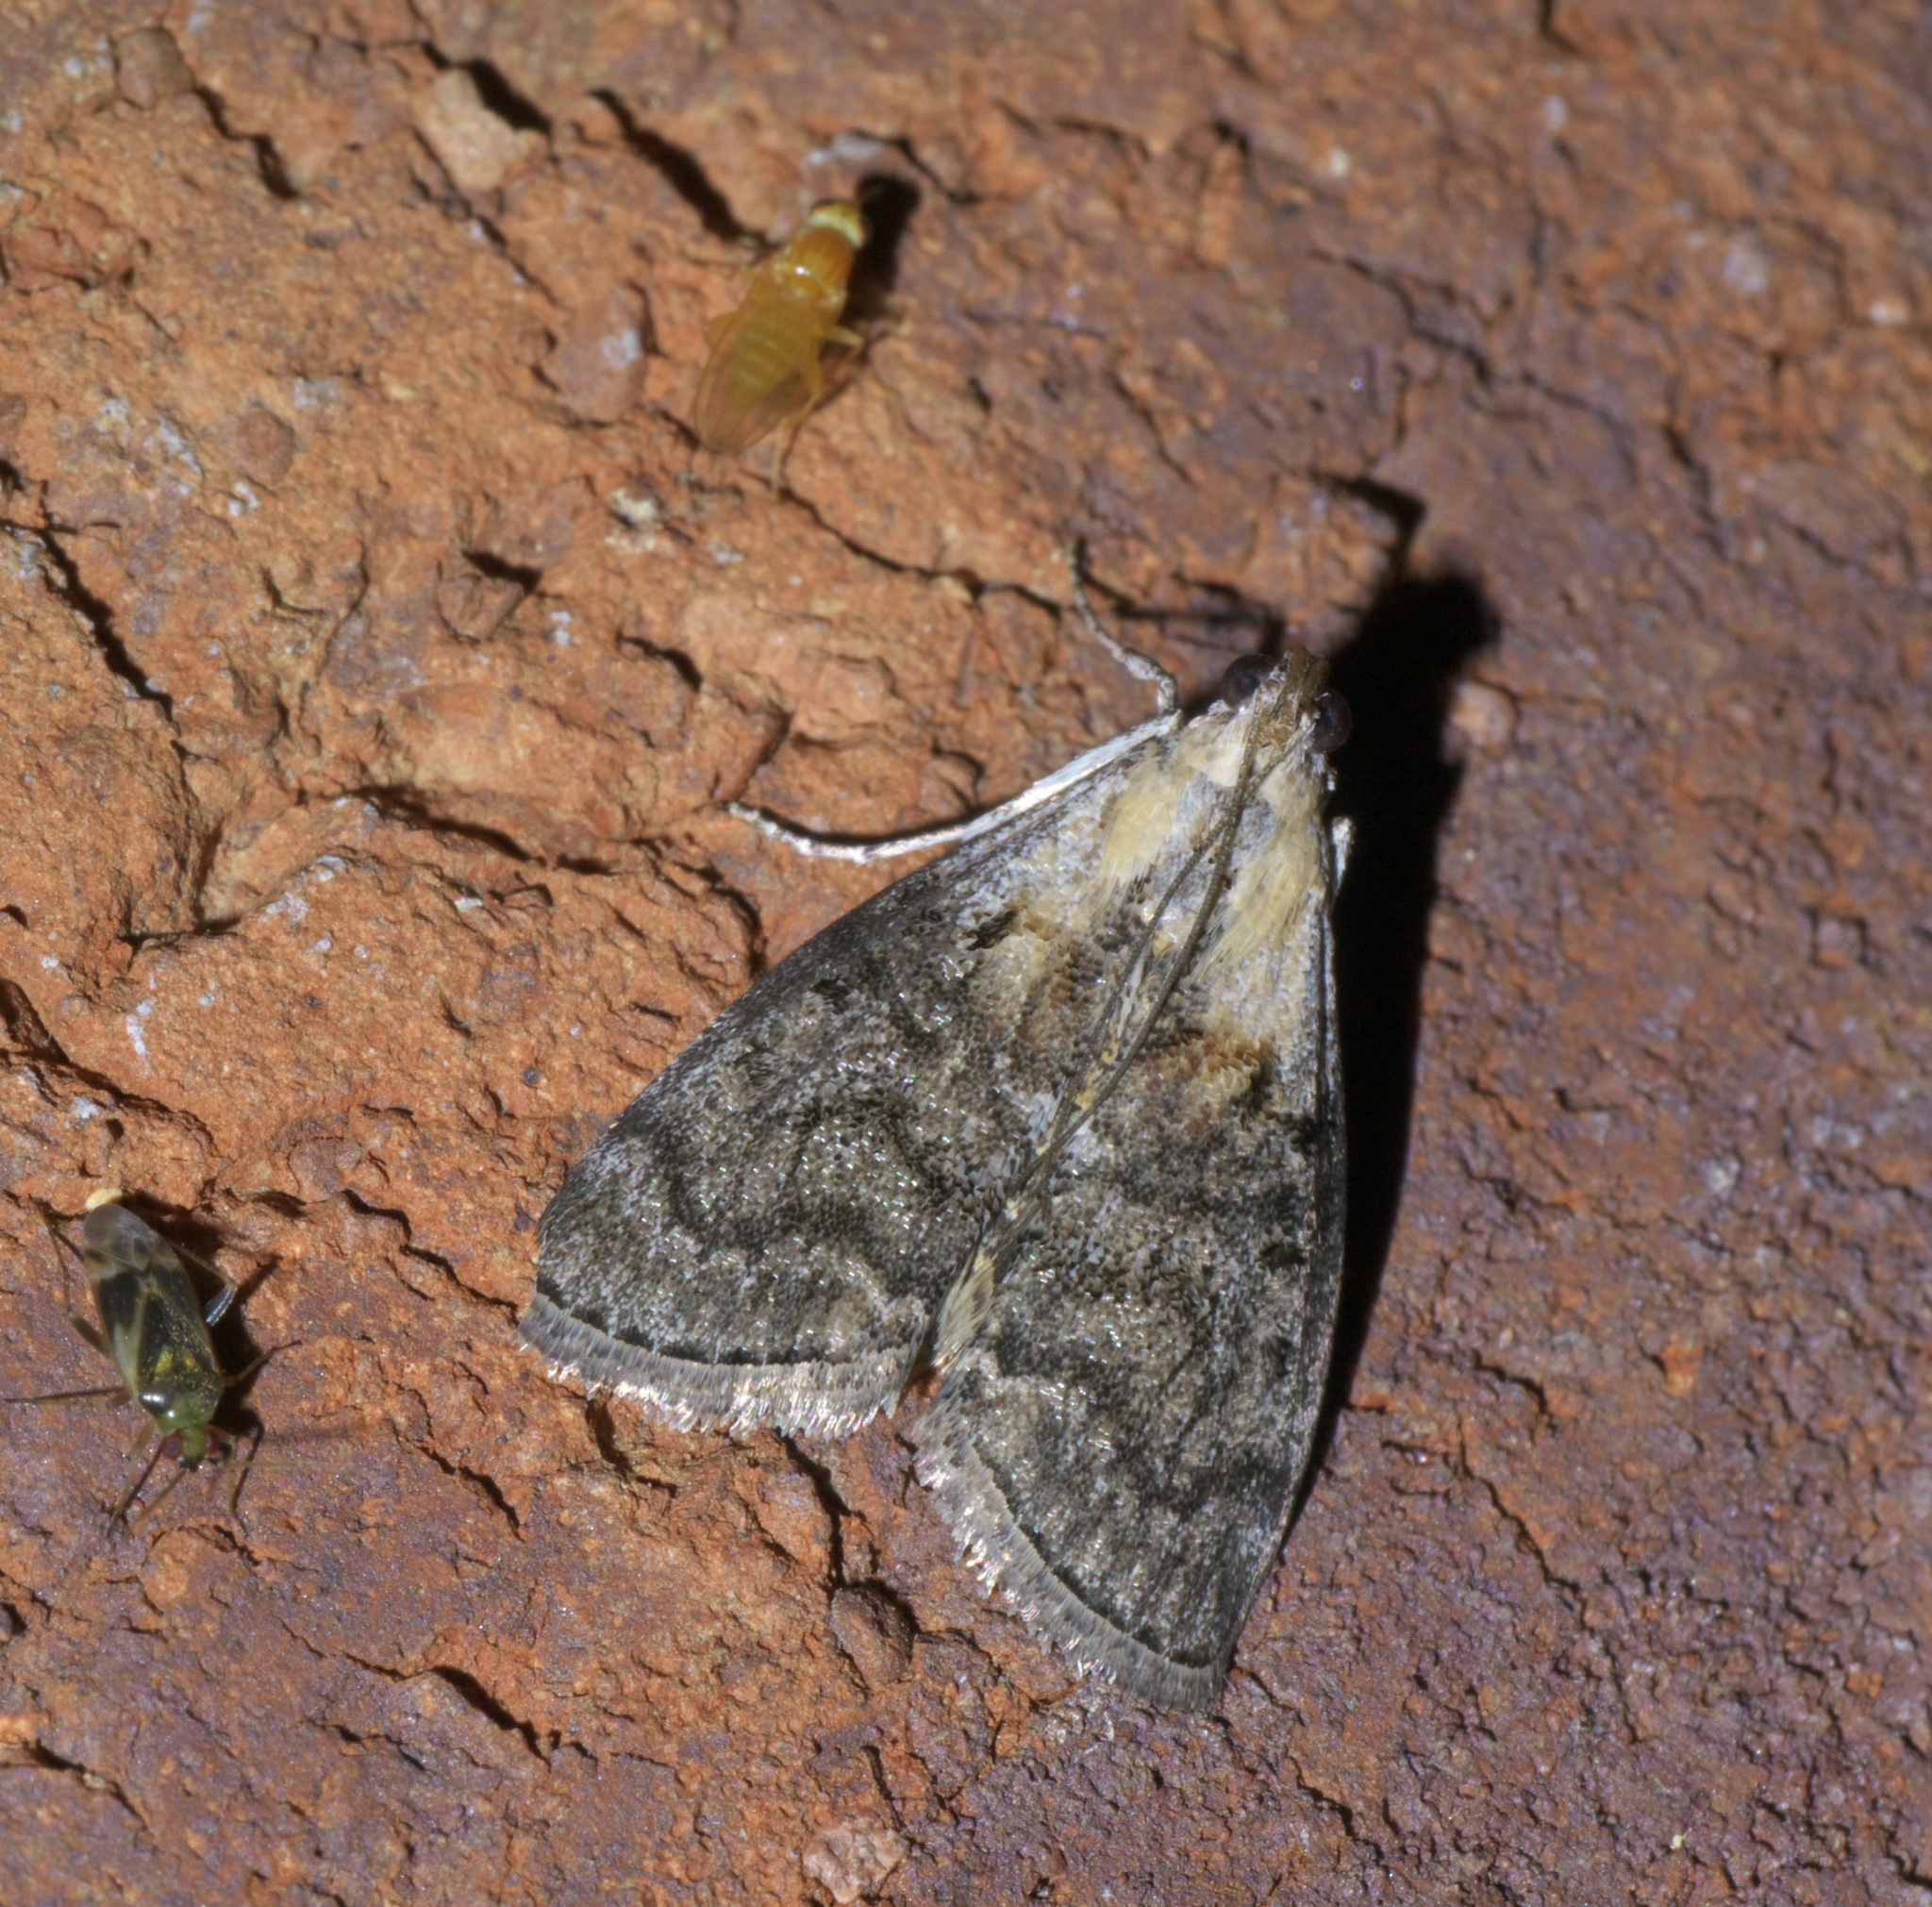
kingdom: Animalia
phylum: Arthropoda
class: Insecta
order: Lepidoptera
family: Pyralidae
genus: Pococera
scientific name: Pococera expandens
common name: Striped oak webworm moth
